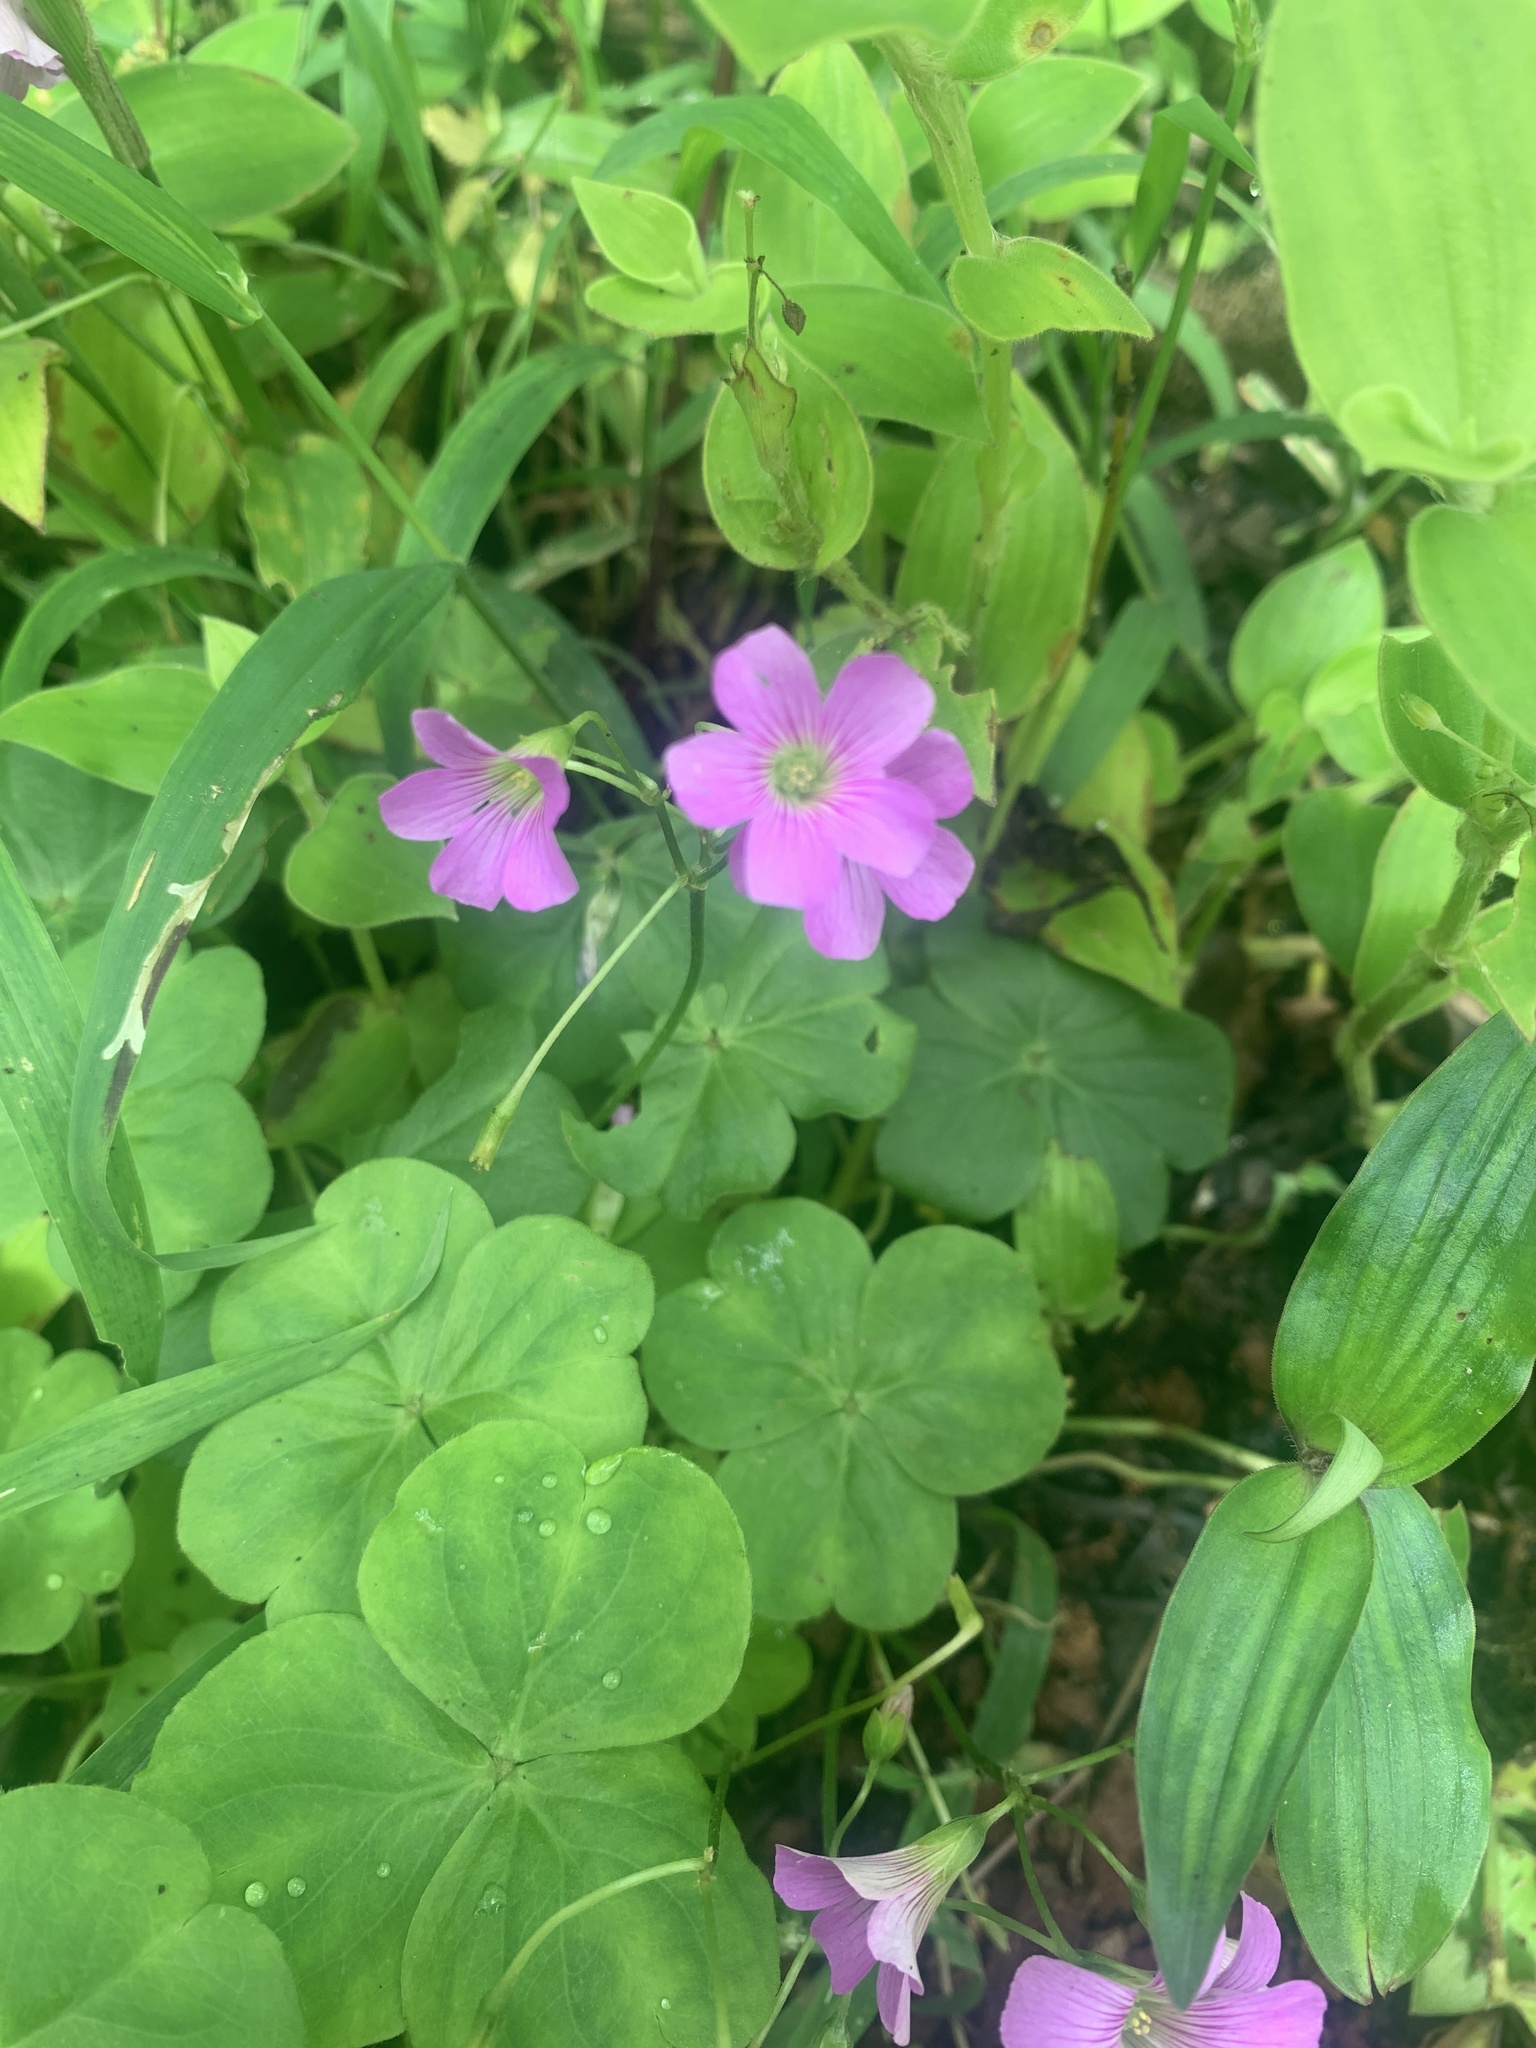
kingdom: Plantae
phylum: Tracheophyta
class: Magnoliopsida
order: Oxalidales
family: Oxalidaceae
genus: Oxalis
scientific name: Oxalis debilis
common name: Large-flowered pink-sorrel
